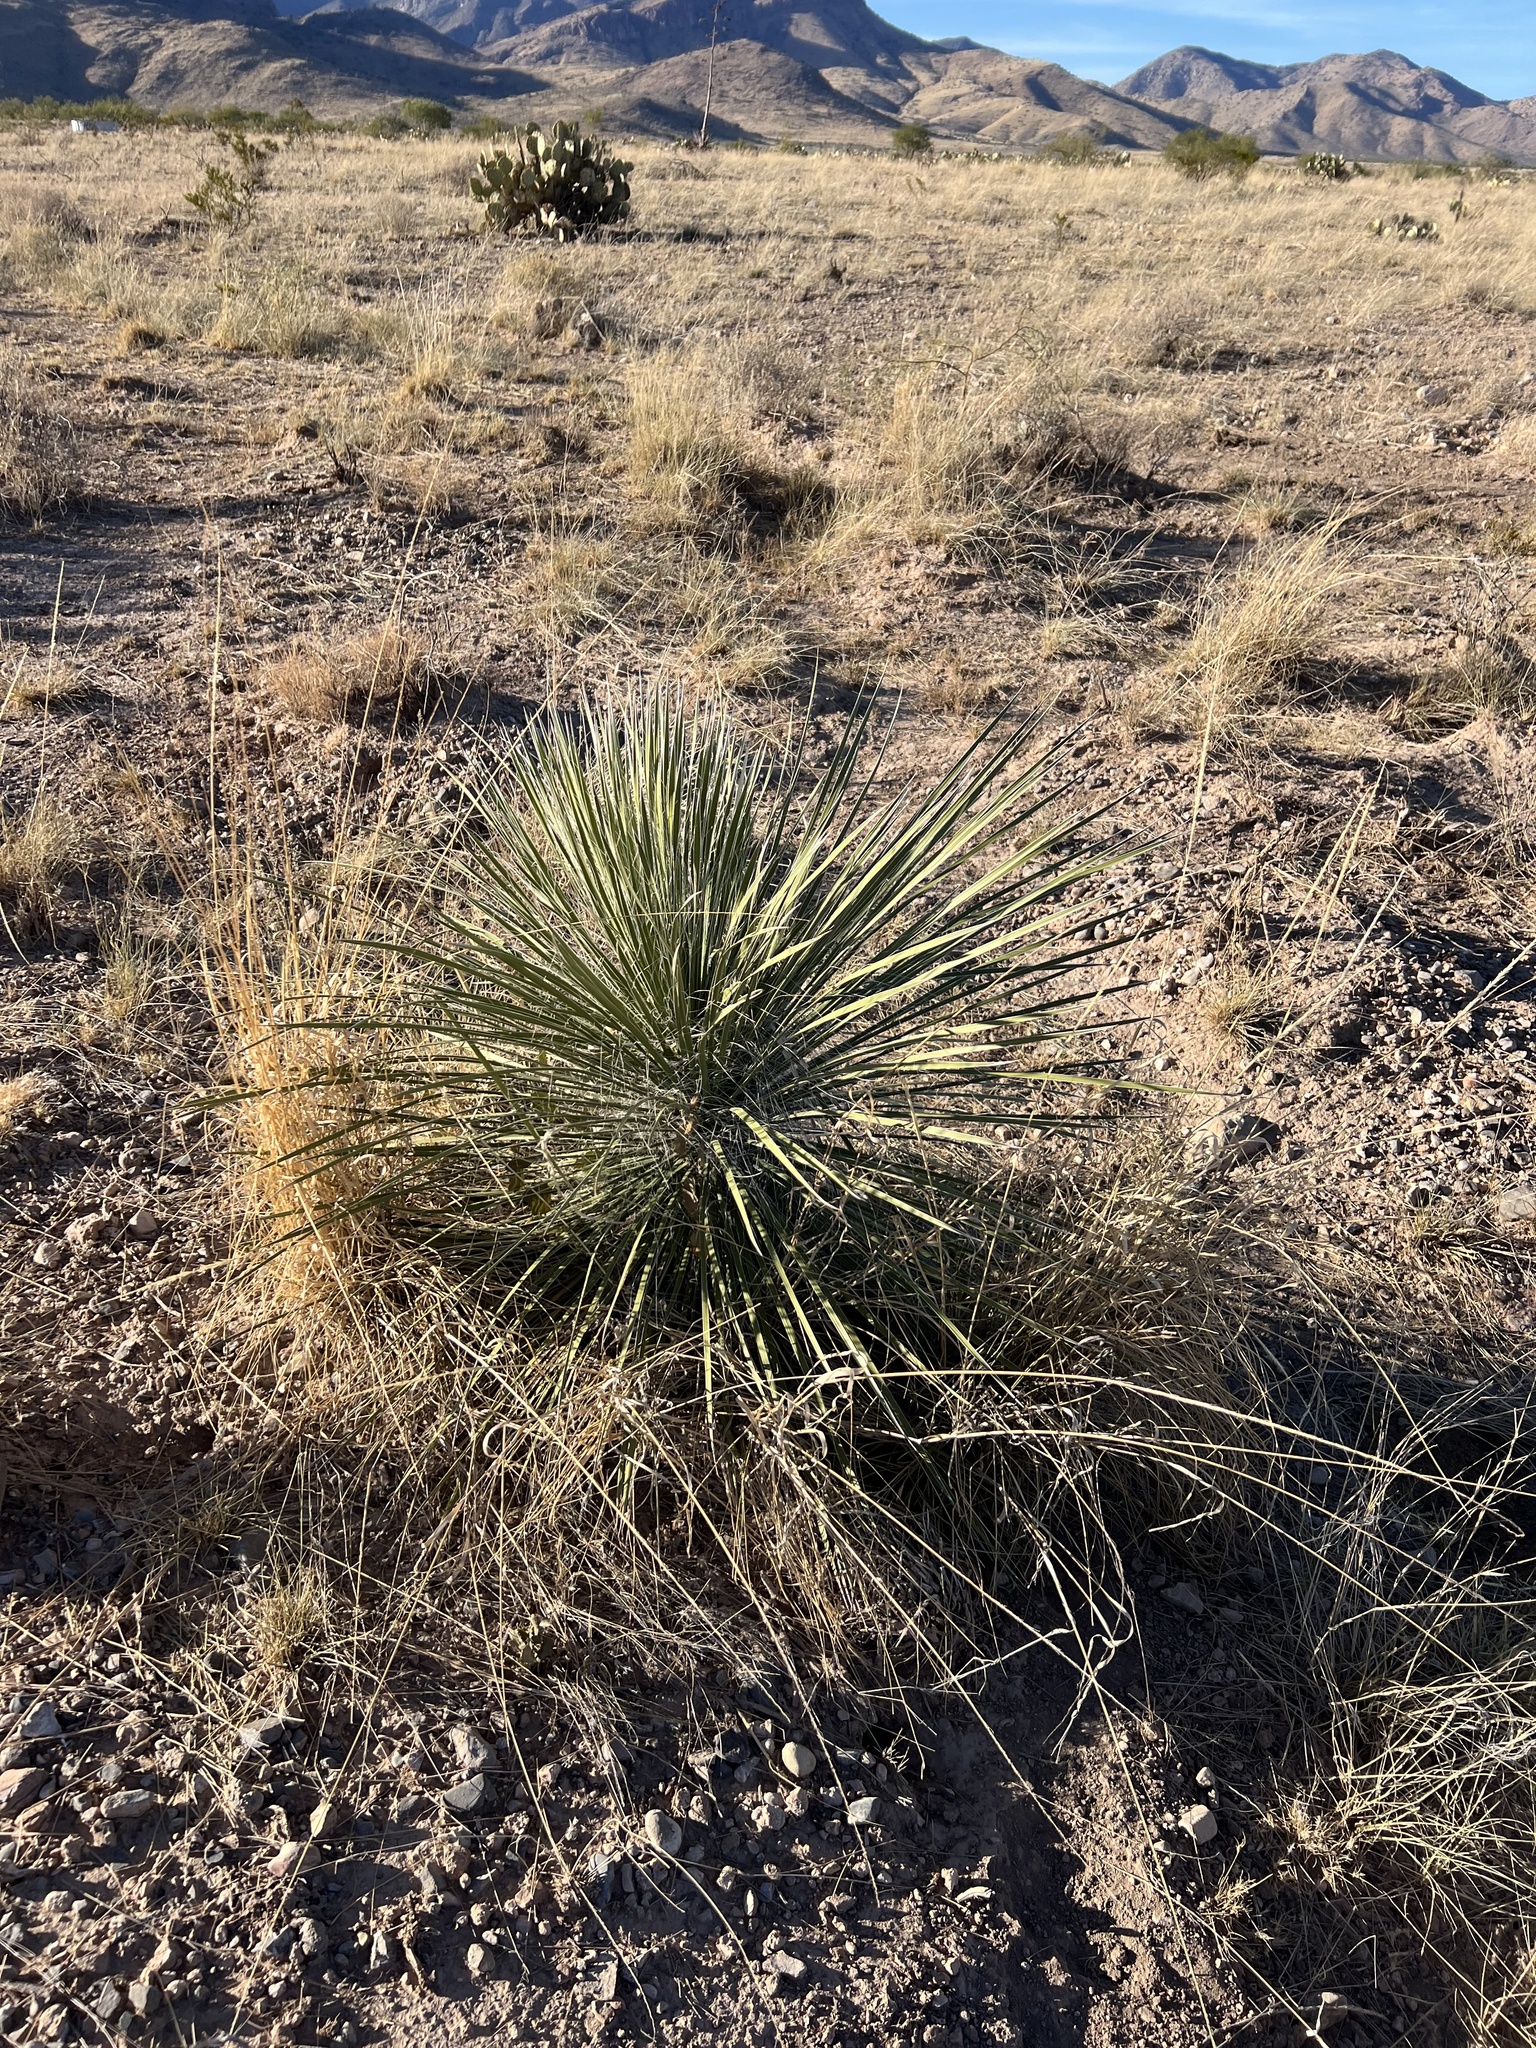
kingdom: Plantae
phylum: Tracheophyta
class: Liliopsida
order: Asparagales
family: Asparagaceae
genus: Yucca
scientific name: Yucca elata
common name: Palmella
